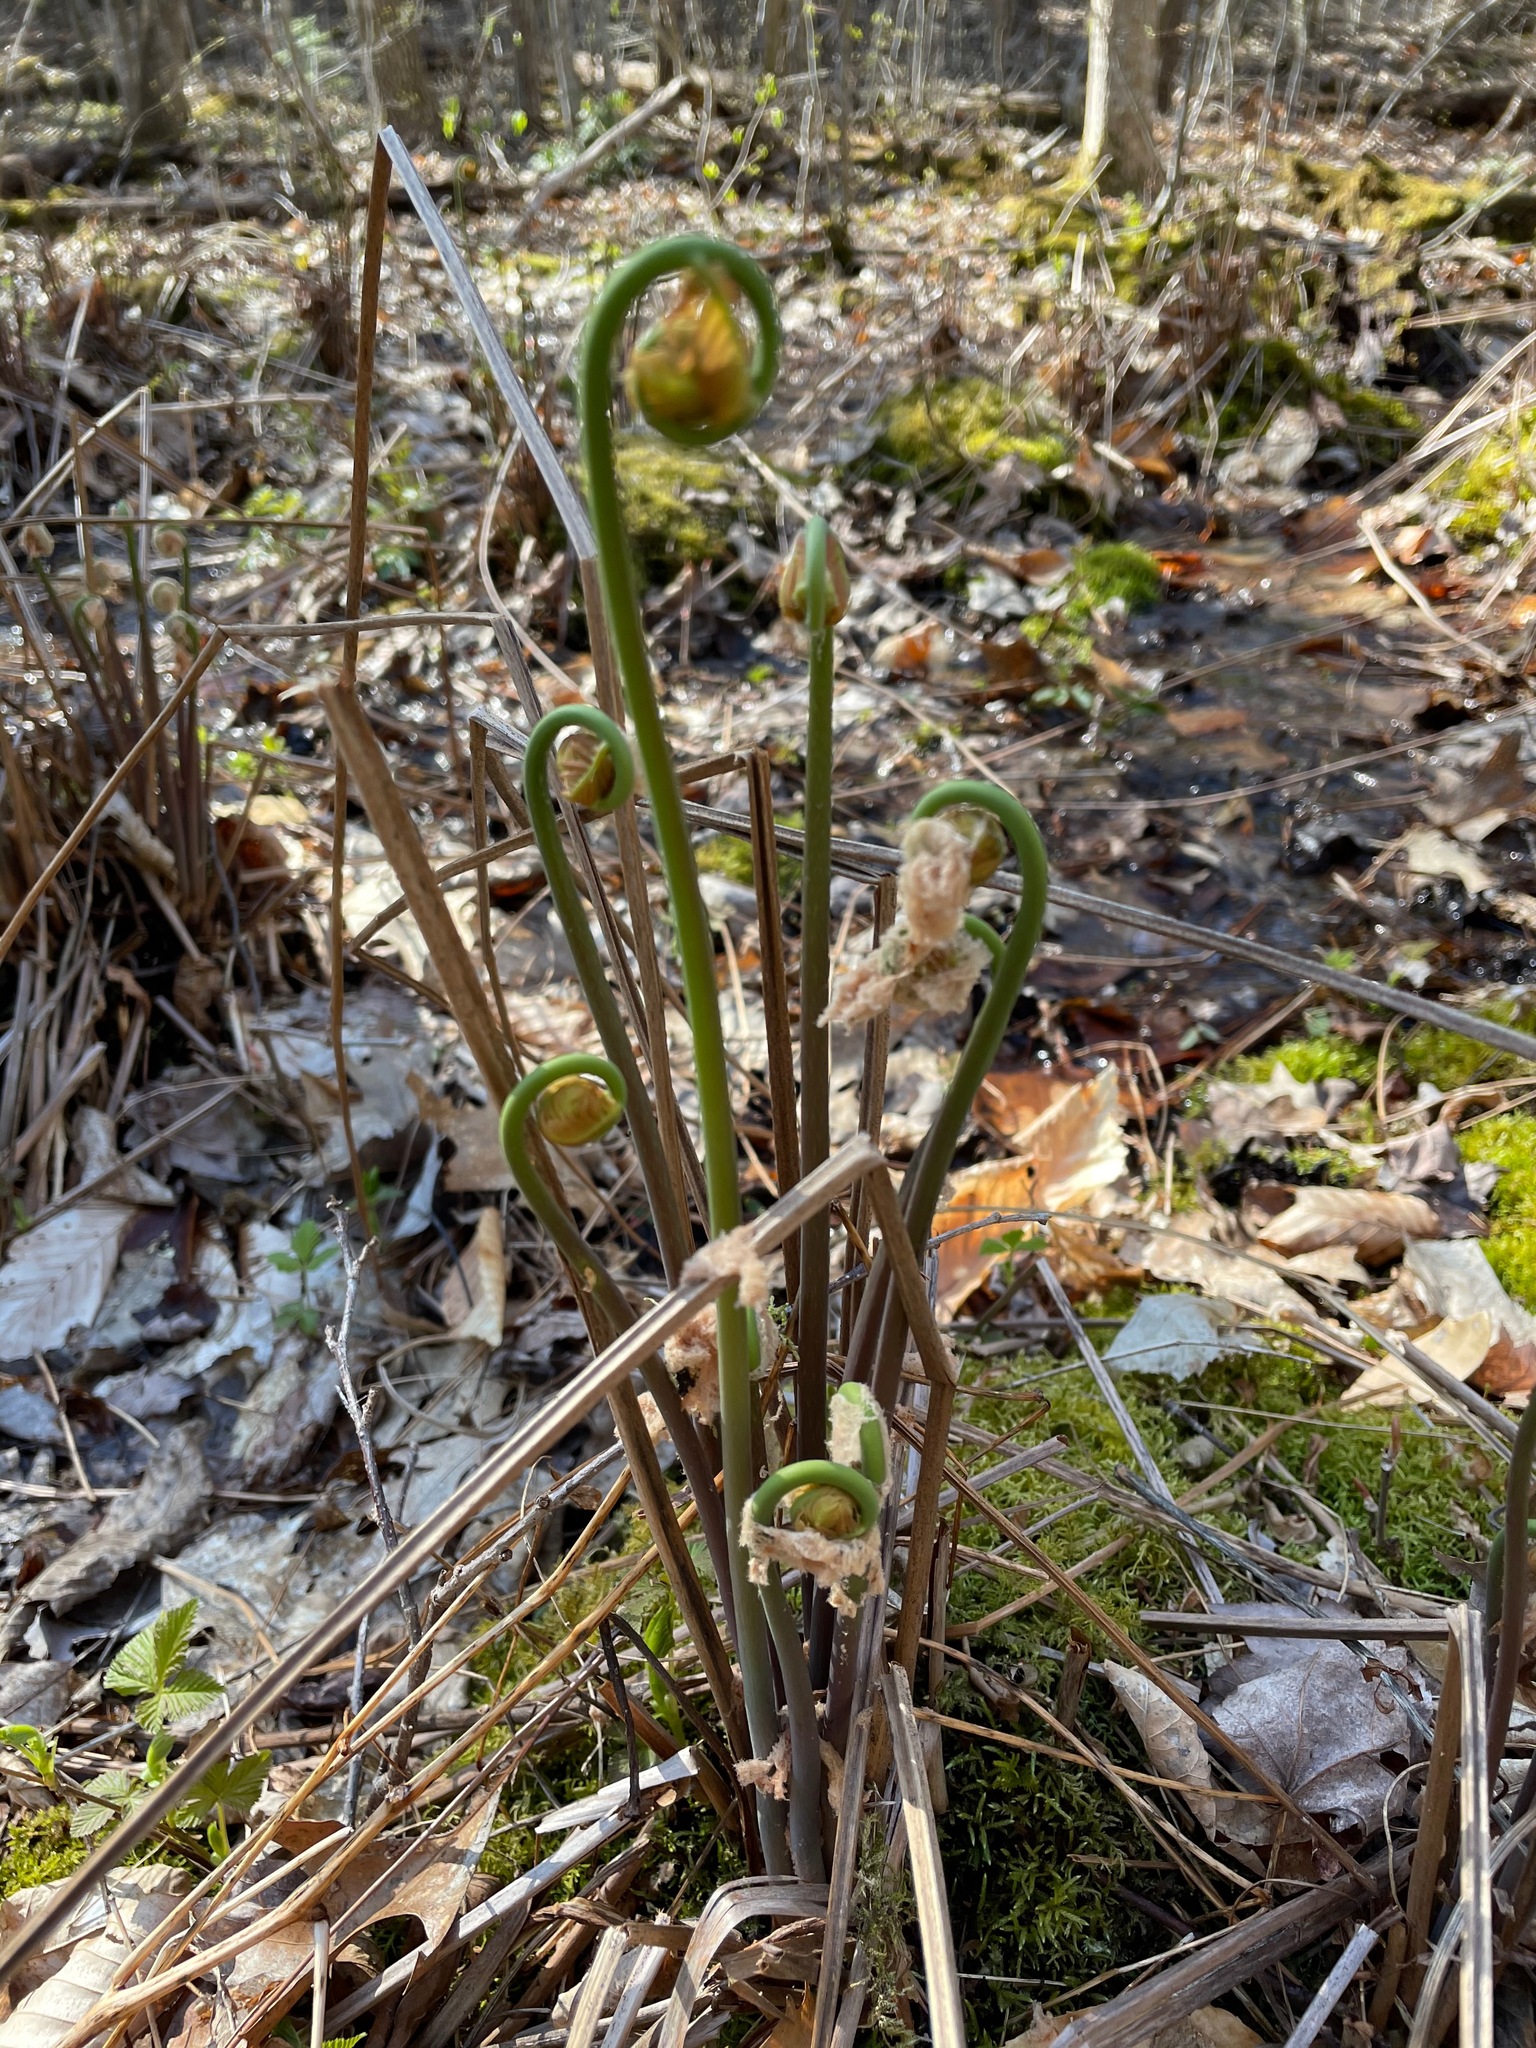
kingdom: Plantae
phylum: Tracheophyta
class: Polypodiopsida
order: Osmundales
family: Osmundaceae
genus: Osmunda
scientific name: Osmunda spectabilis
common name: American royal fern
